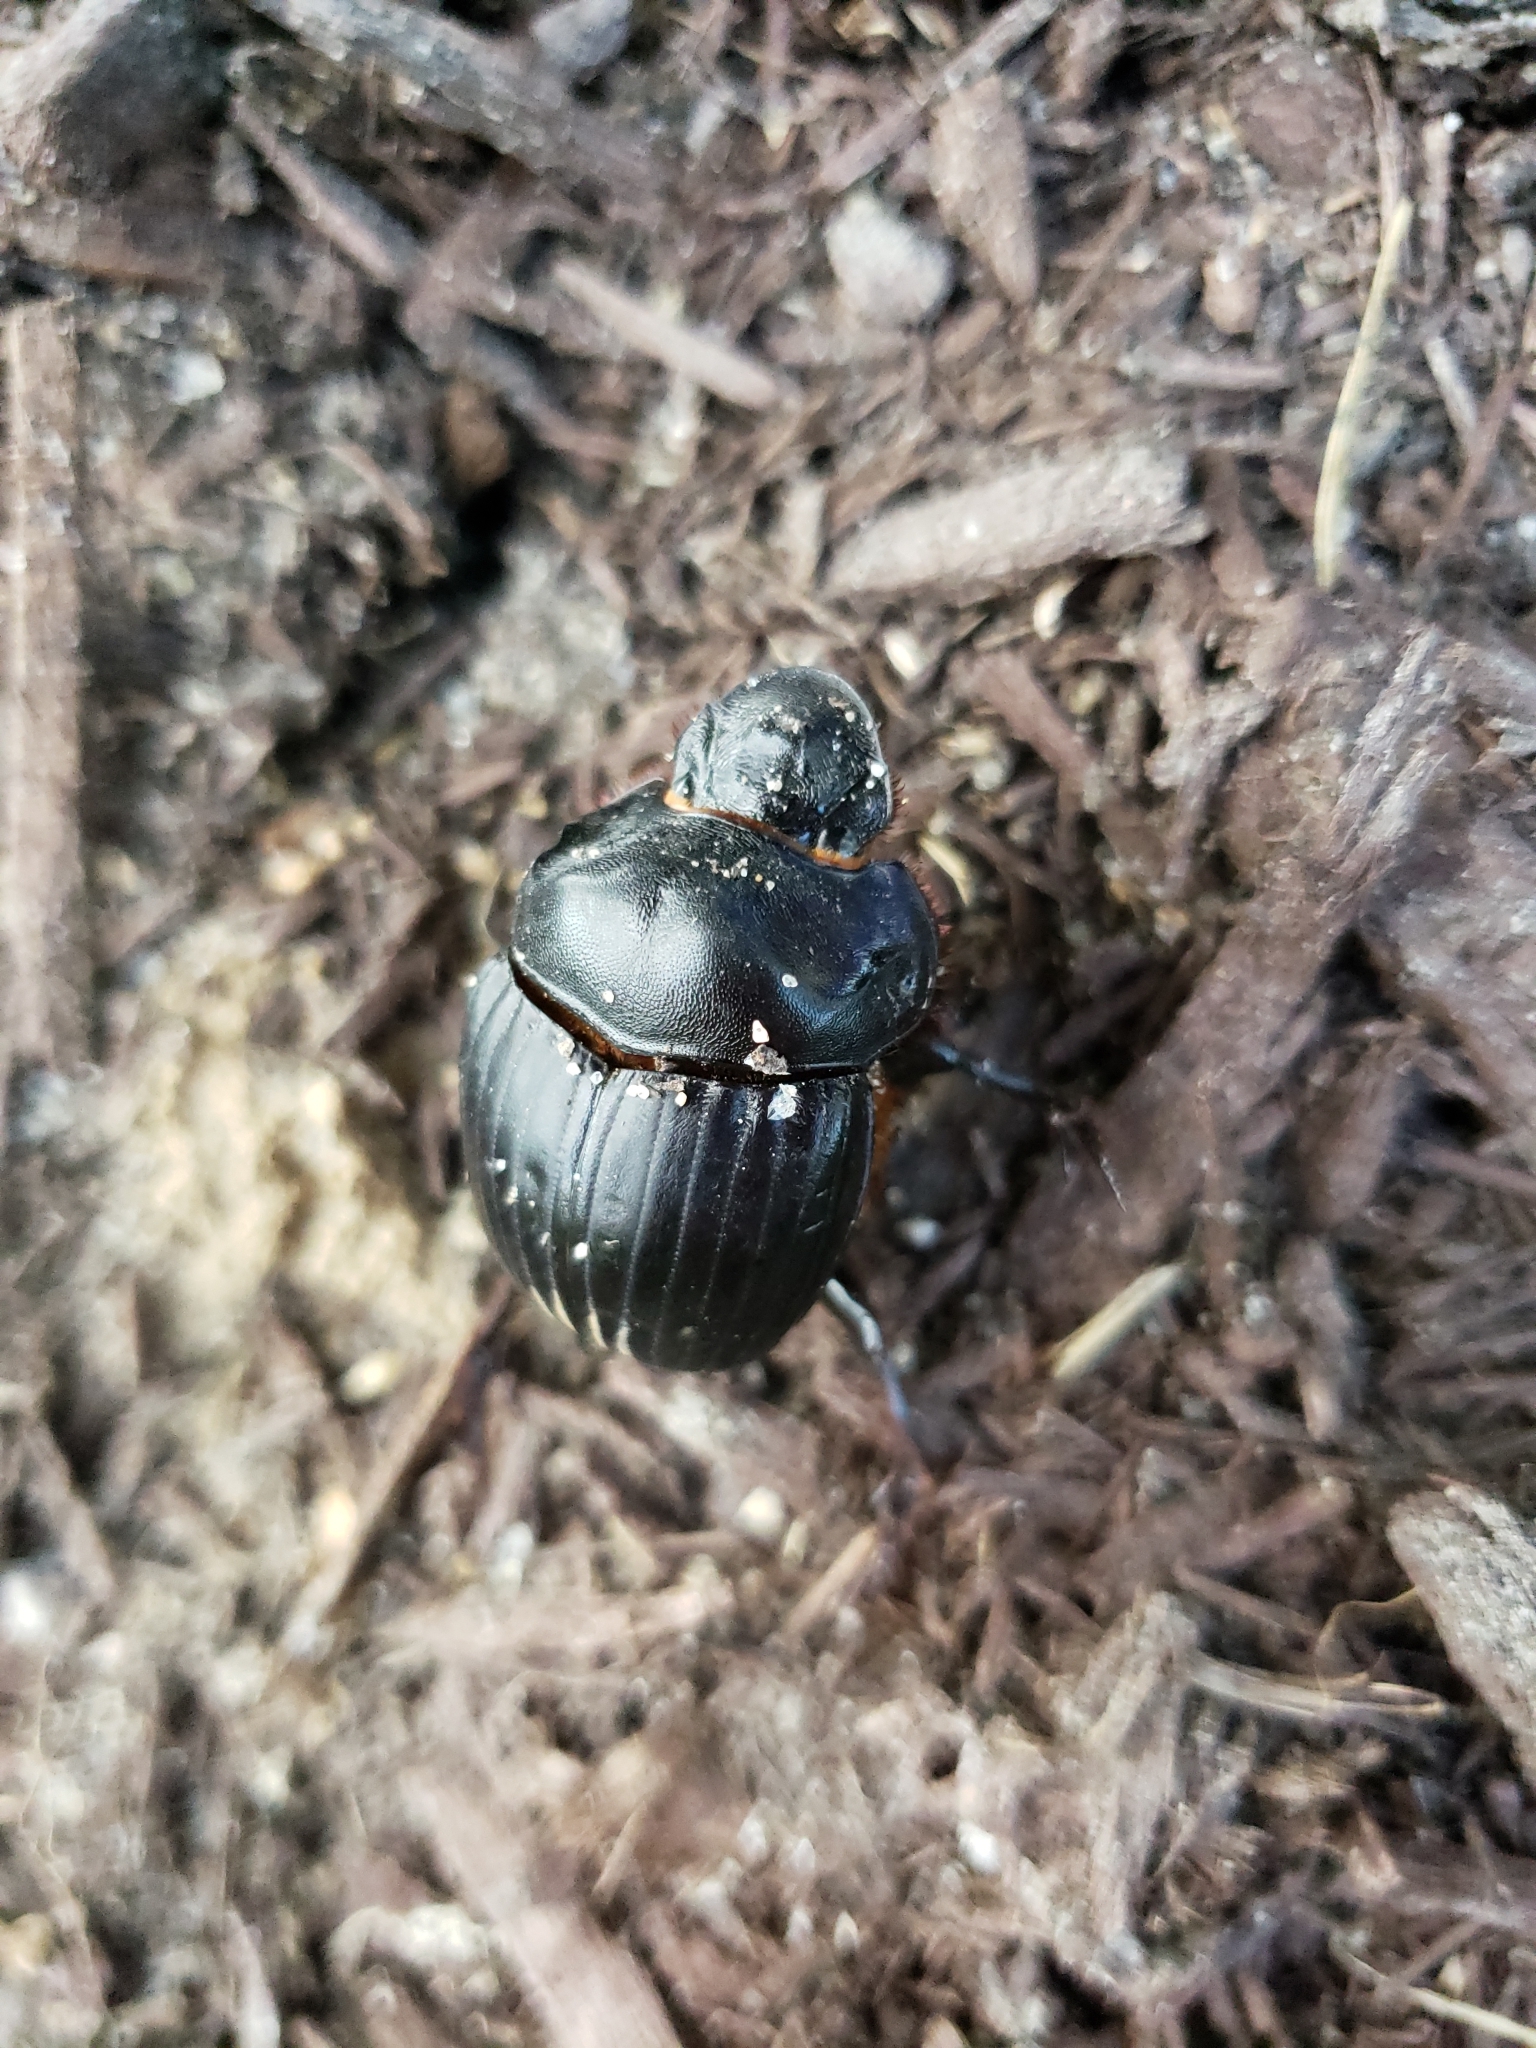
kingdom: Animalia
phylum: Arthropoda
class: Insecta
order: Coleoptera
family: Scarabaeidae
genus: Dichotomius
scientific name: Dichotomius carolinus
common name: Carolina copris
